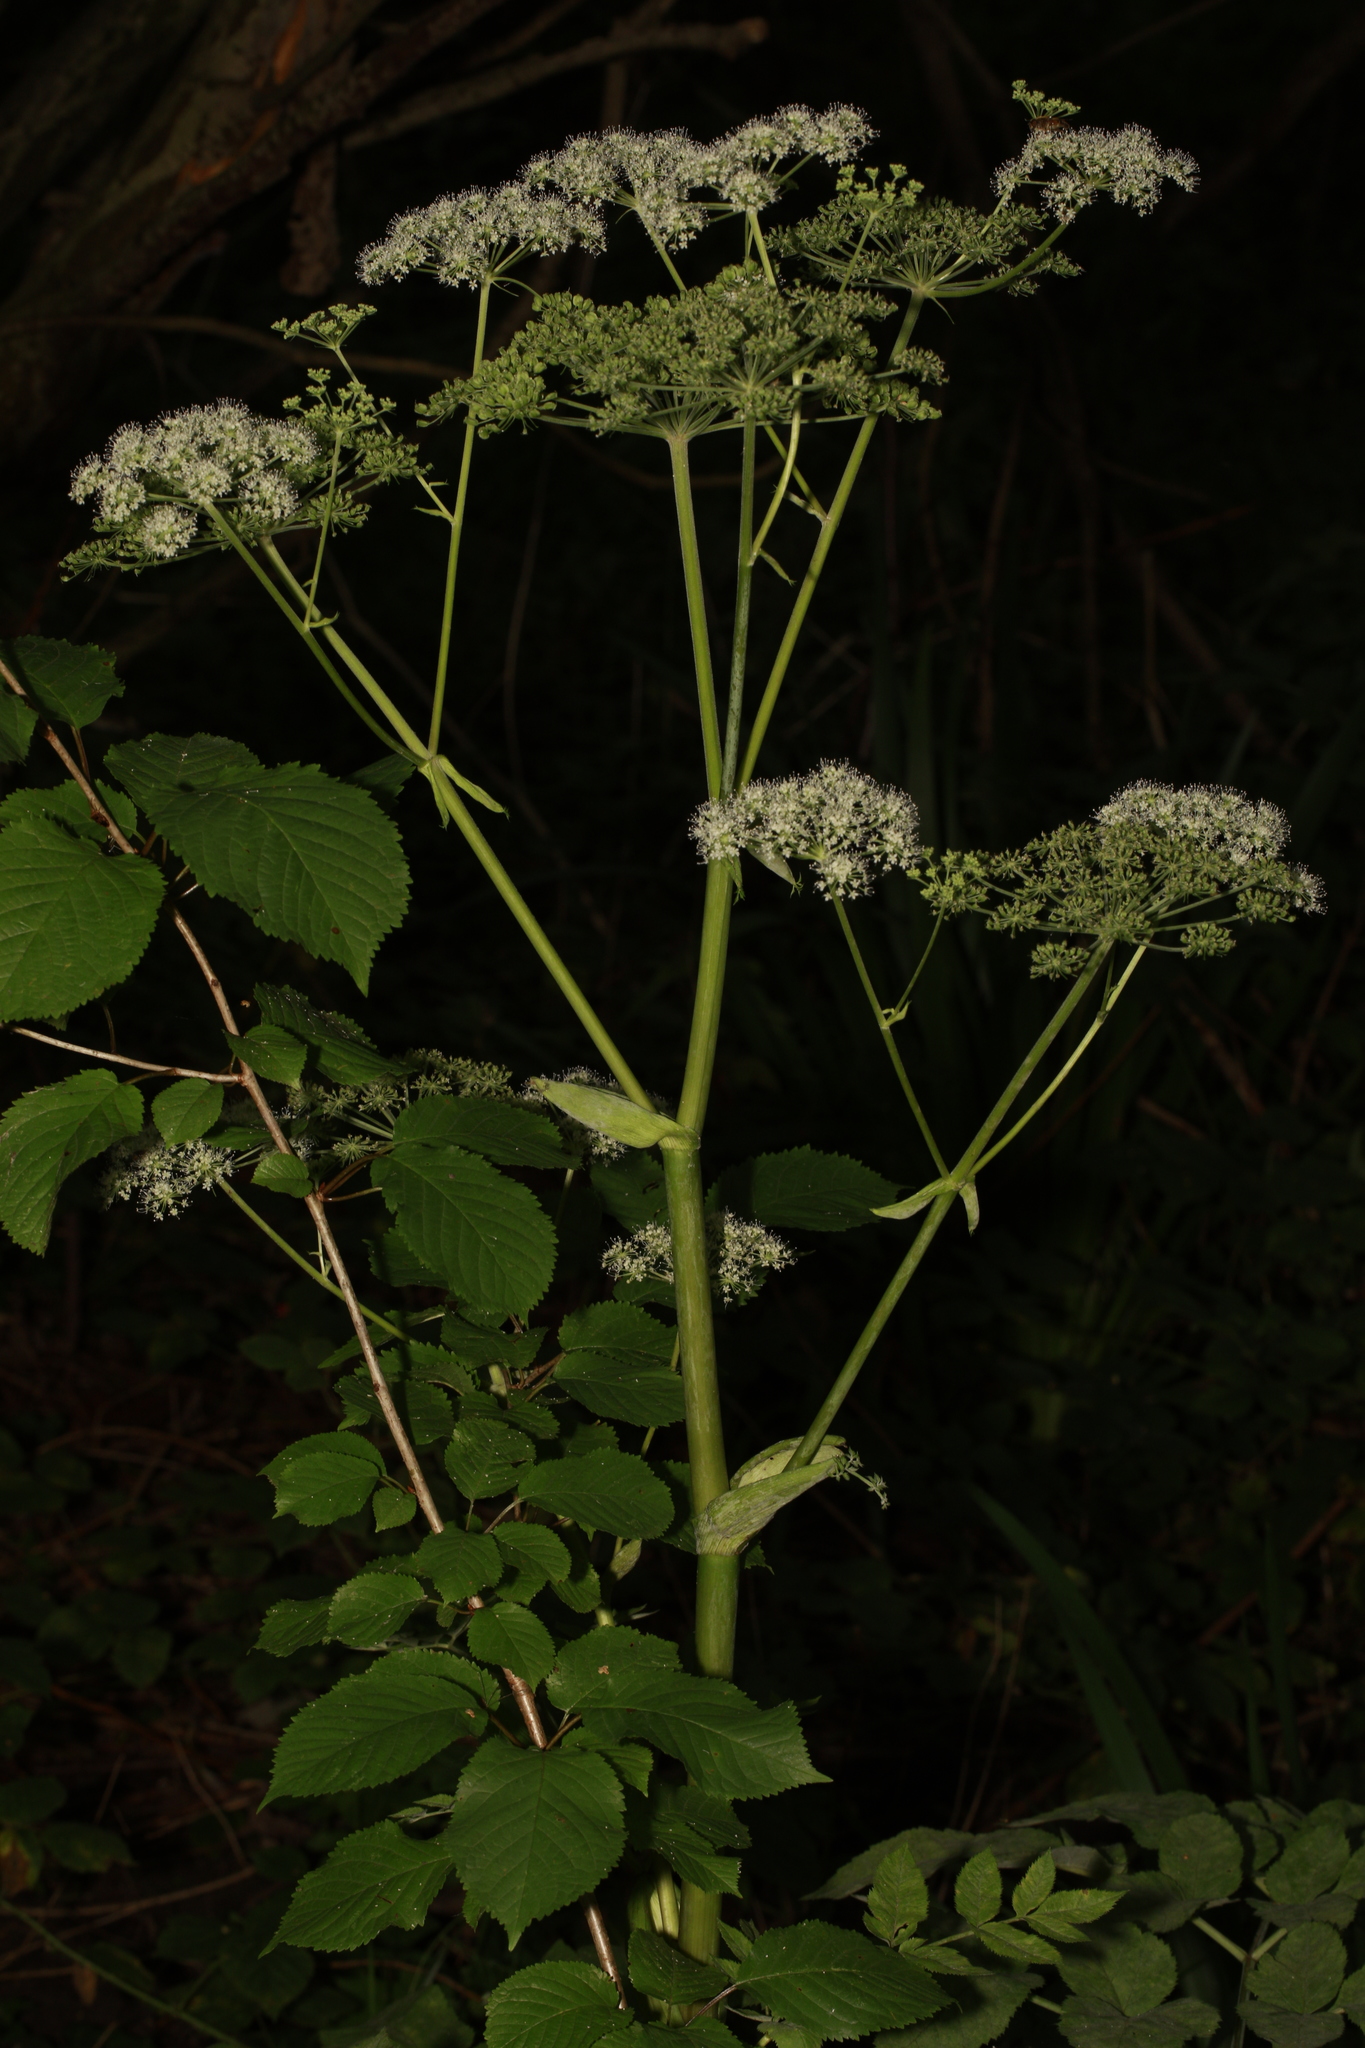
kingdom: Plantae
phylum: Tracheophyta
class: Magnoliopsida
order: Apiales
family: Apiaceae
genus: Angelica
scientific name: Angelica sylvestris
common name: Wild angelica
